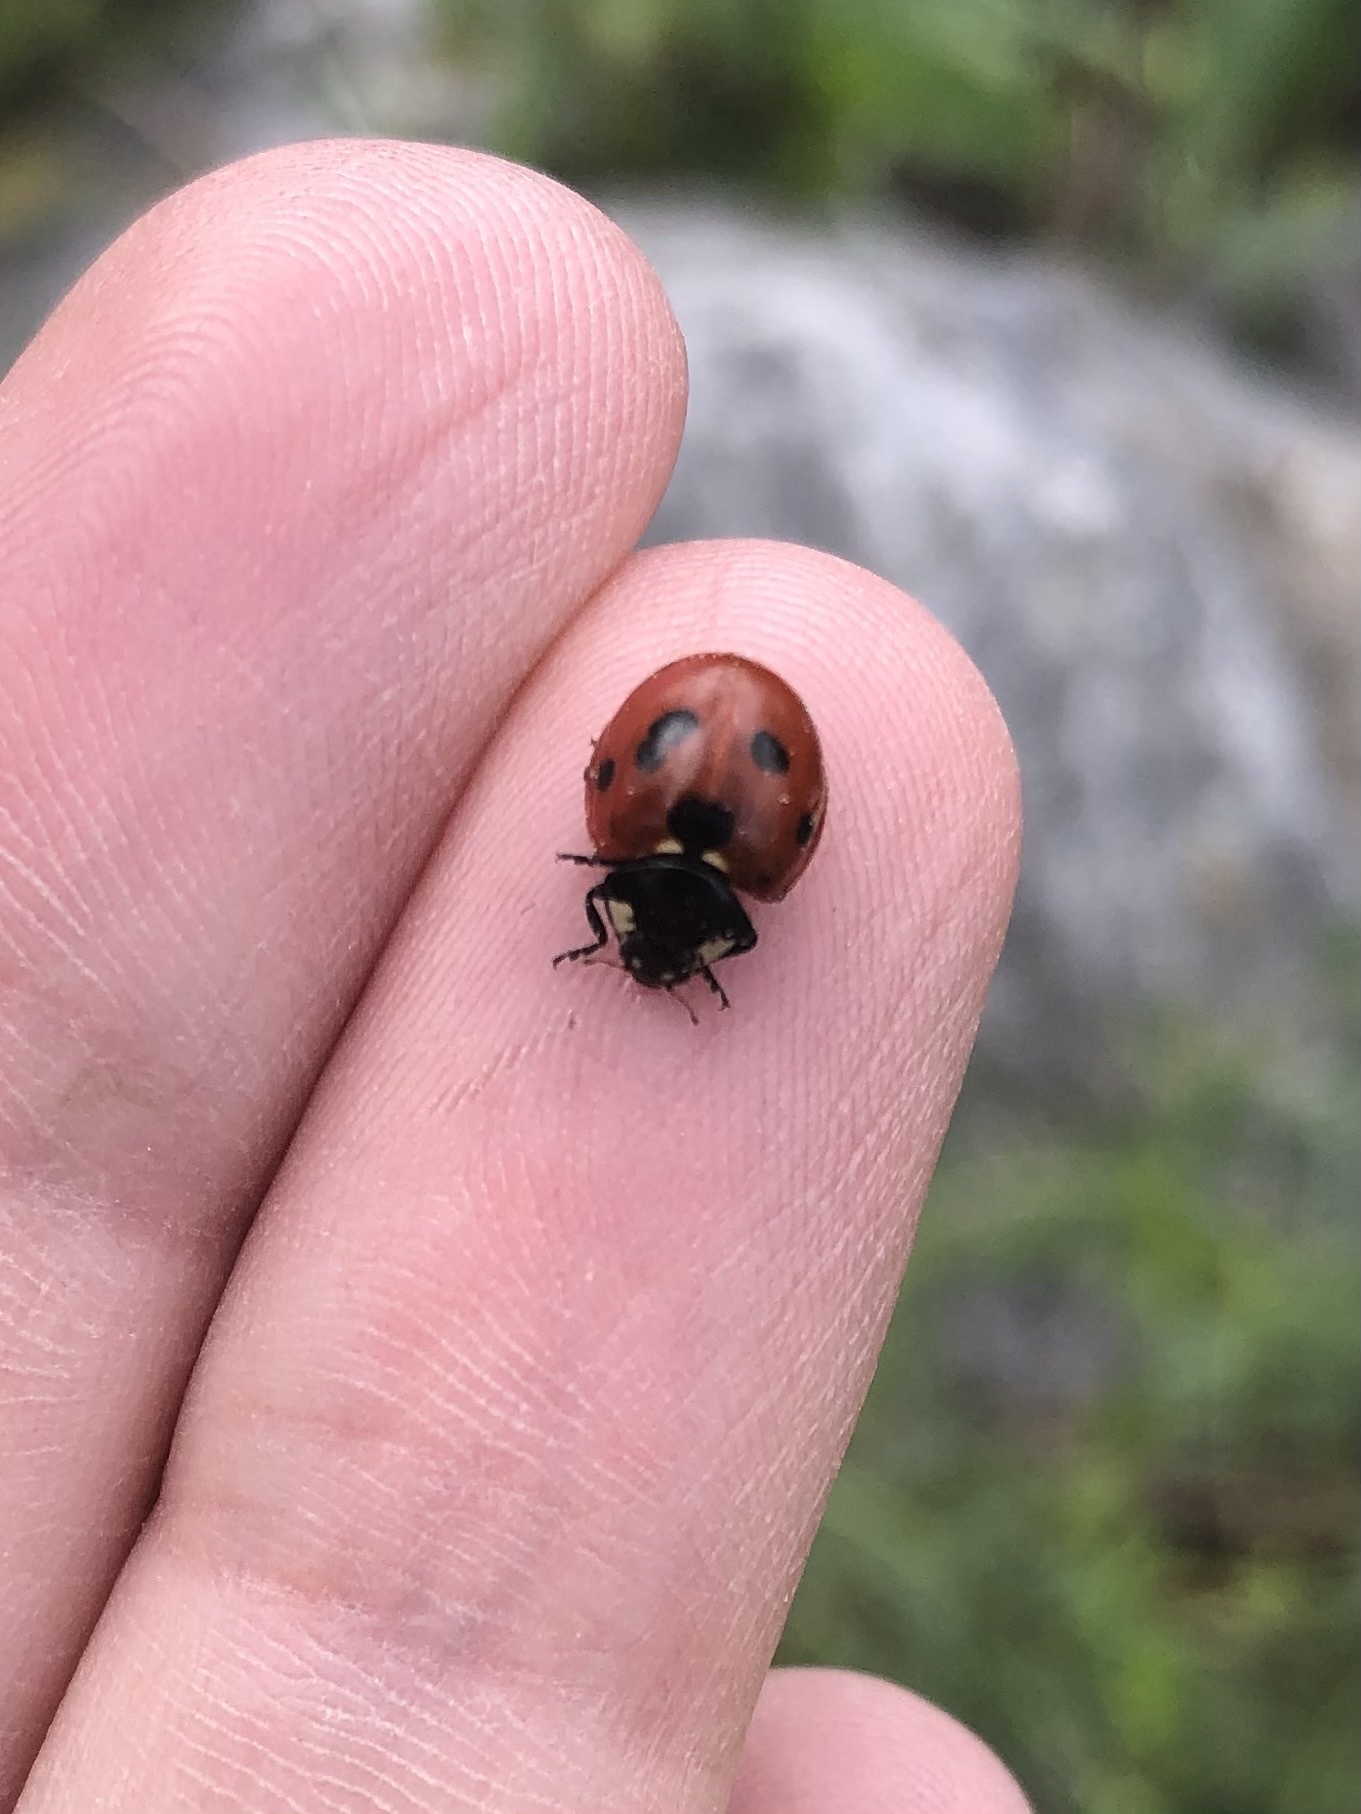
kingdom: Animalia
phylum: Arthropoda
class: Insecta
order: Coleoptera
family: Coccinellidae
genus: Coccinella
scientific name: Coccinella septempunctata
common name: Sevenspotted lady beetle
